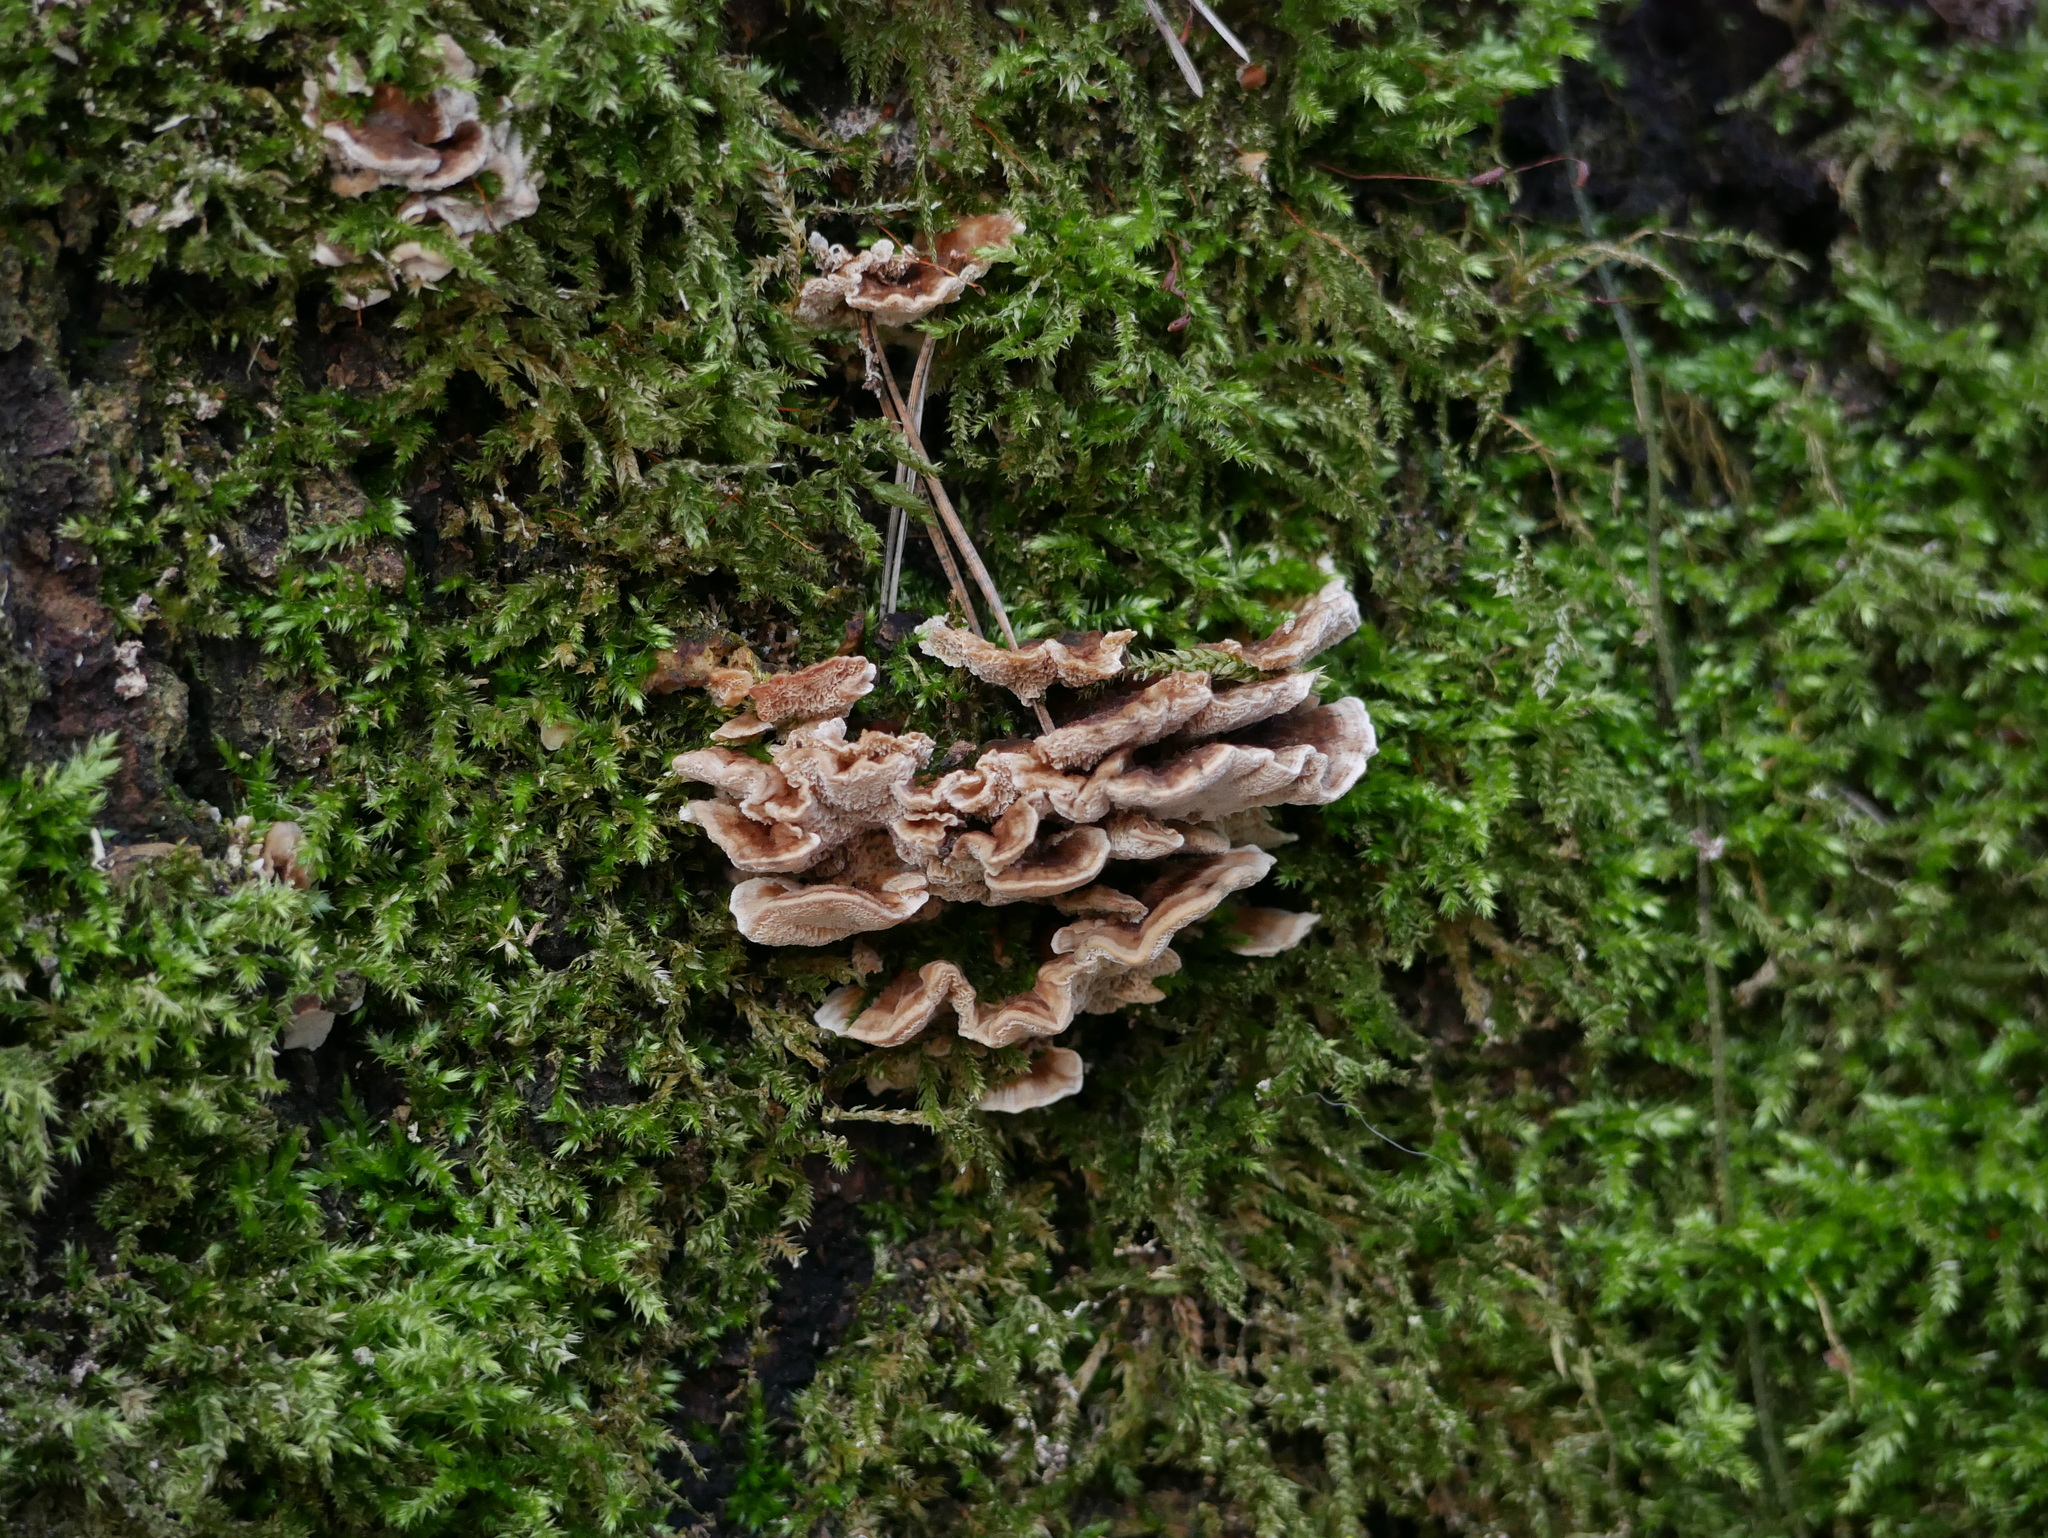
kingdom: Fungi
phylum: Basidiomycota
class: Agaricomycetes
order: Polyporales
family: Polyporaceae
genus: Trametes
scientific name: Trametes versicolor
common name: Turkeytail
